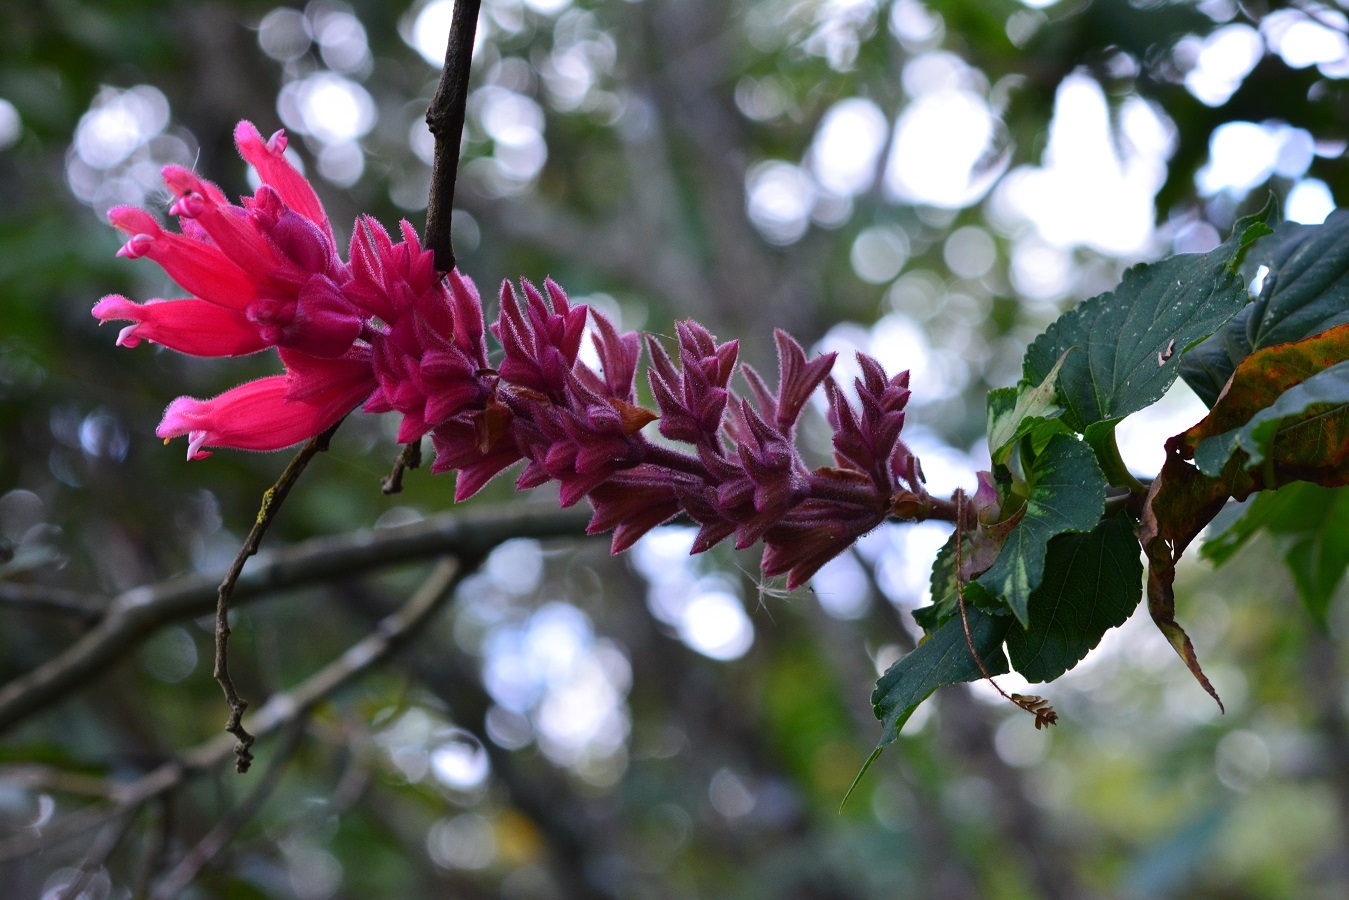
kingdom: Plantae
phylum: Tracheophyta
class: Magnoliopsida
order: Lamiales
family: Lamiaceae
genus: Salvia
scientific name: Salvia wagneriana
